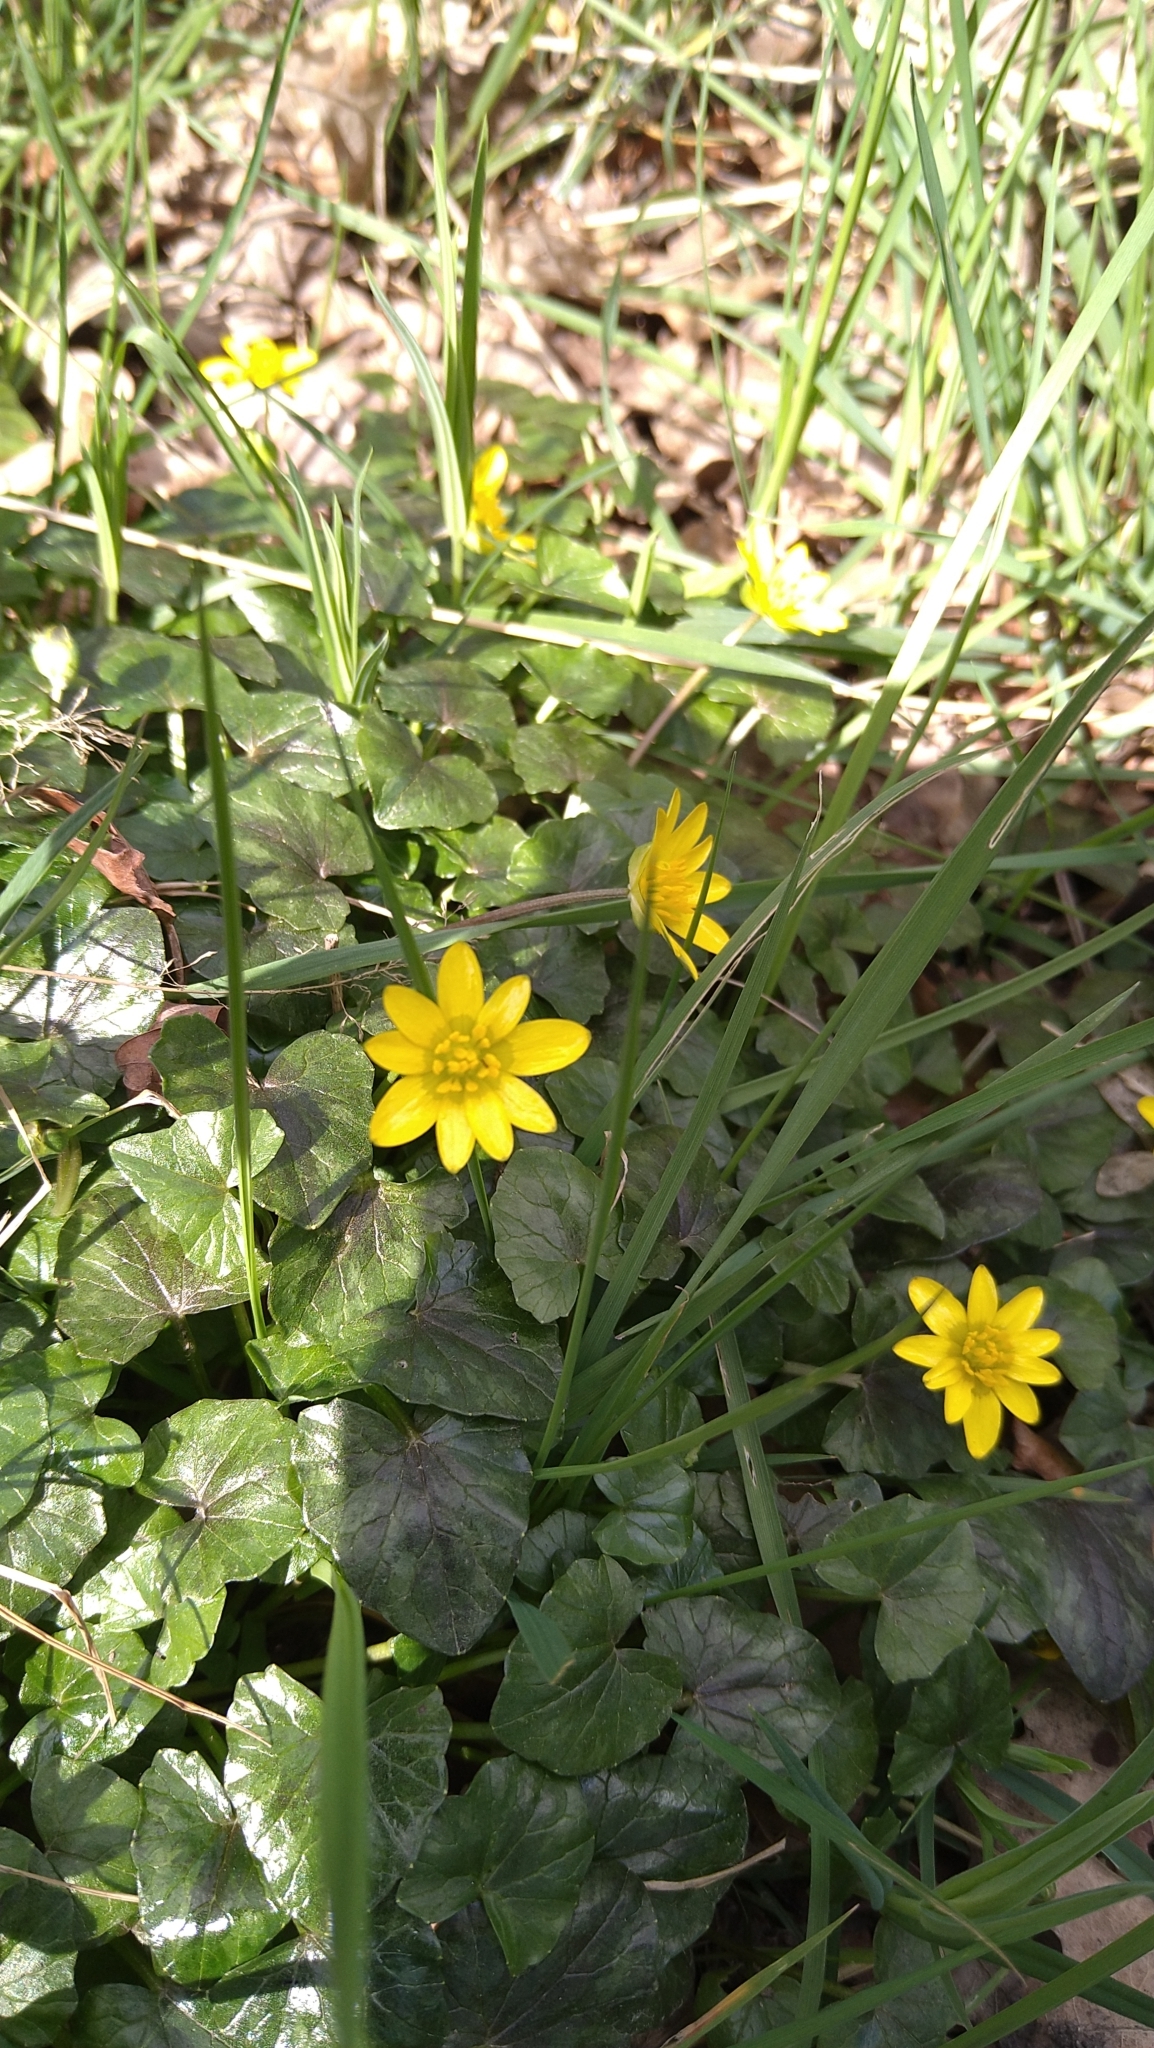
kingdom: Plantae
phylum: Tracheophyta
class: Magnoliopsida
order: Ranunculales
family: Ranunculaceae
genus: Ficaria
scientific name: Ficaria verna
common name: Lesser celandine
